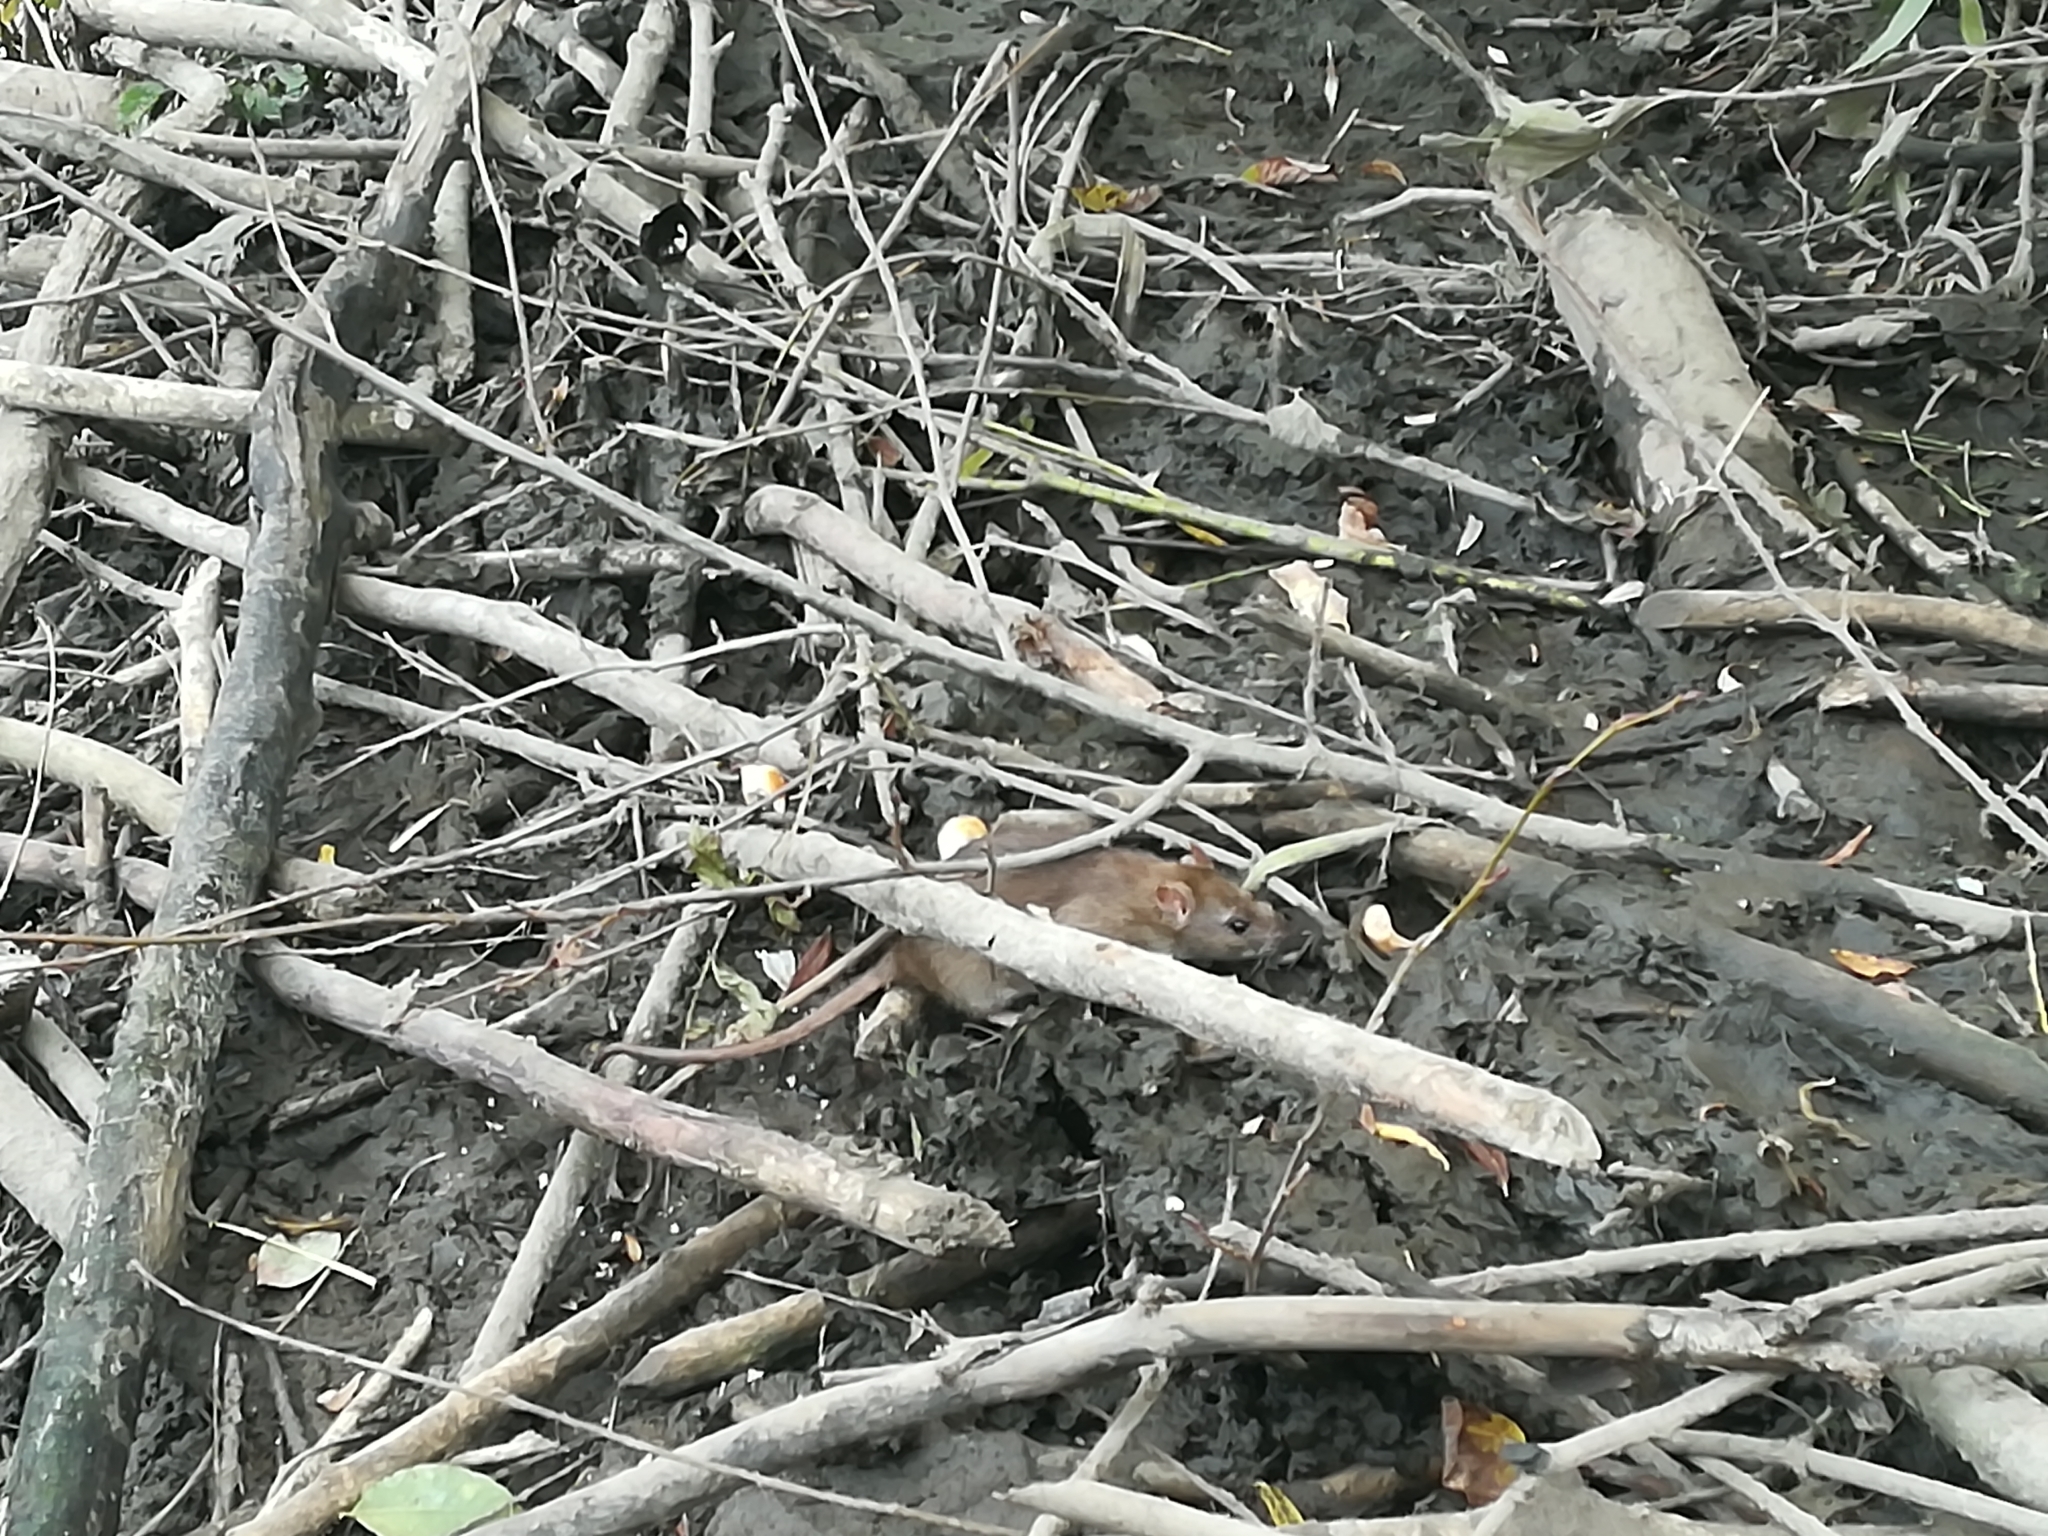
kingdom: Animalia
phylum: Chordata
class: Mammalia
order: Rodentia
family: Muridae
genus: Rattus
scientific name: Rattus norvegicus
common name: Brown rat
